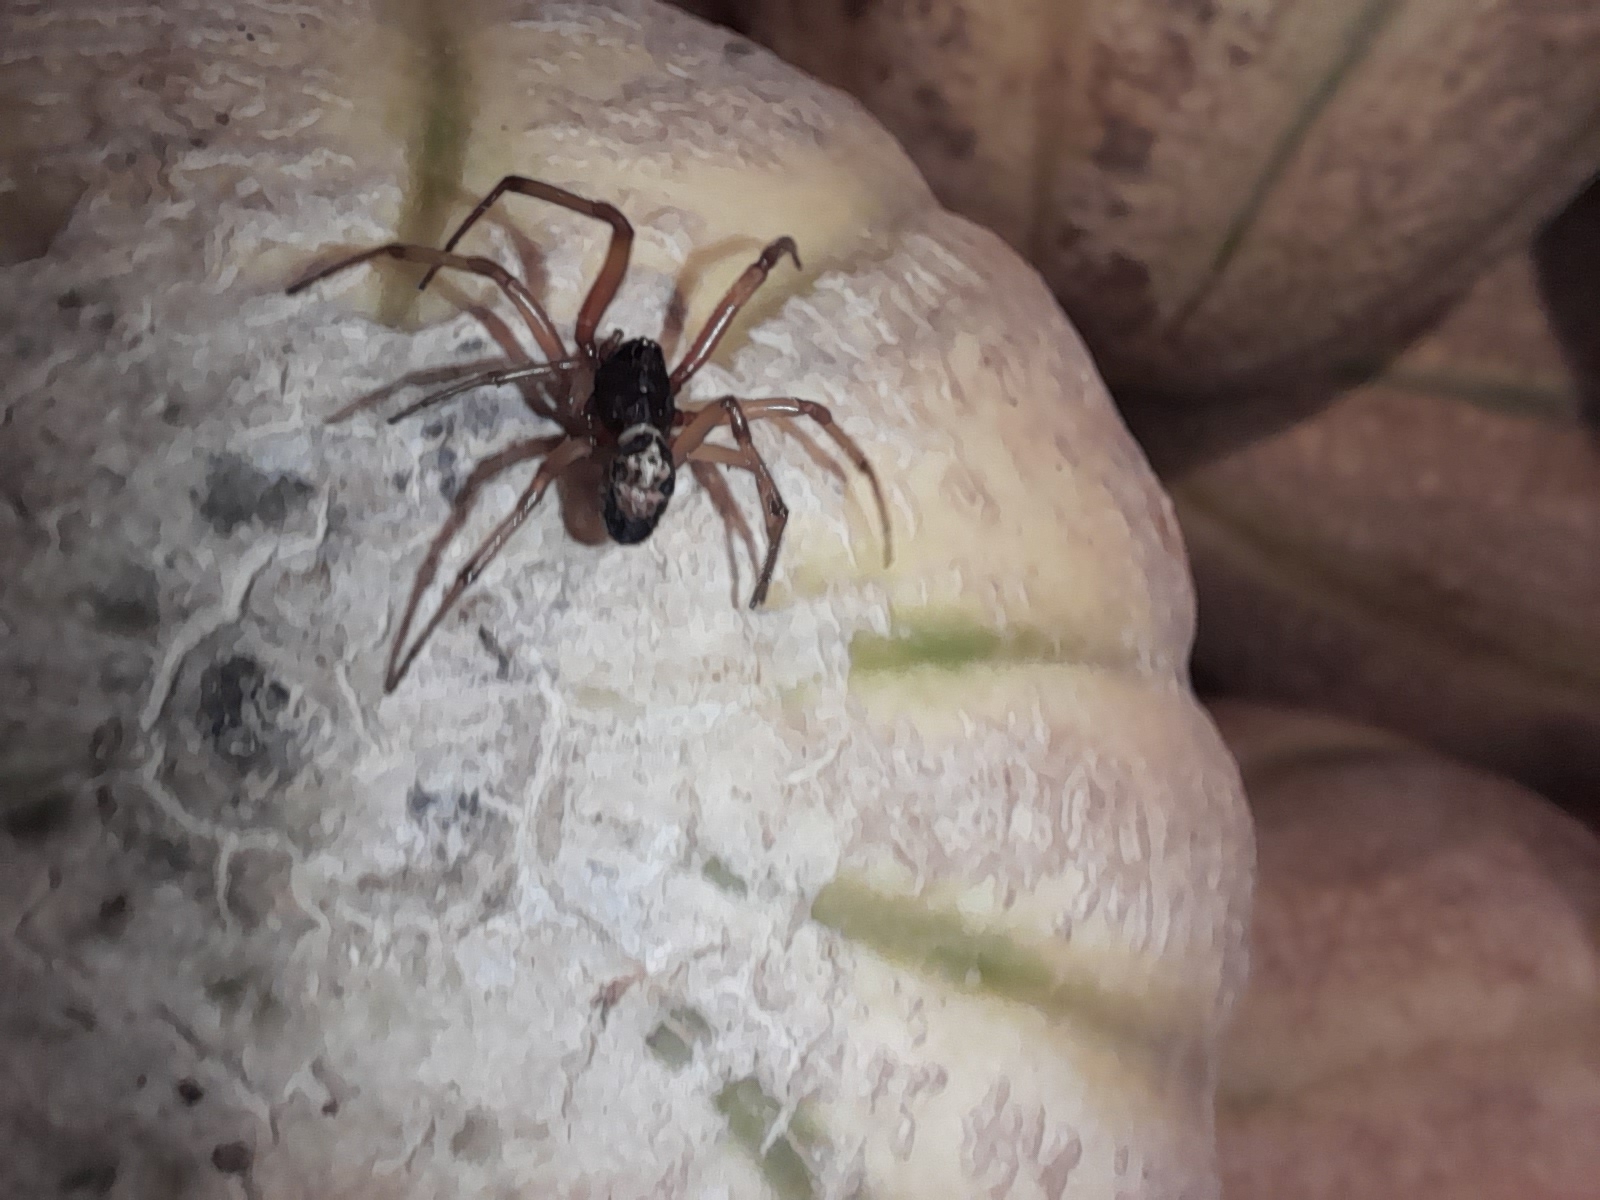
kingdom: Animalia
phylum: Arthropoda
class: Arachnida
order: Araneae
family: Theridiidae
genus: Steatoda
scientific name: Steatoda nobilis
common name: Cobweb weaver
